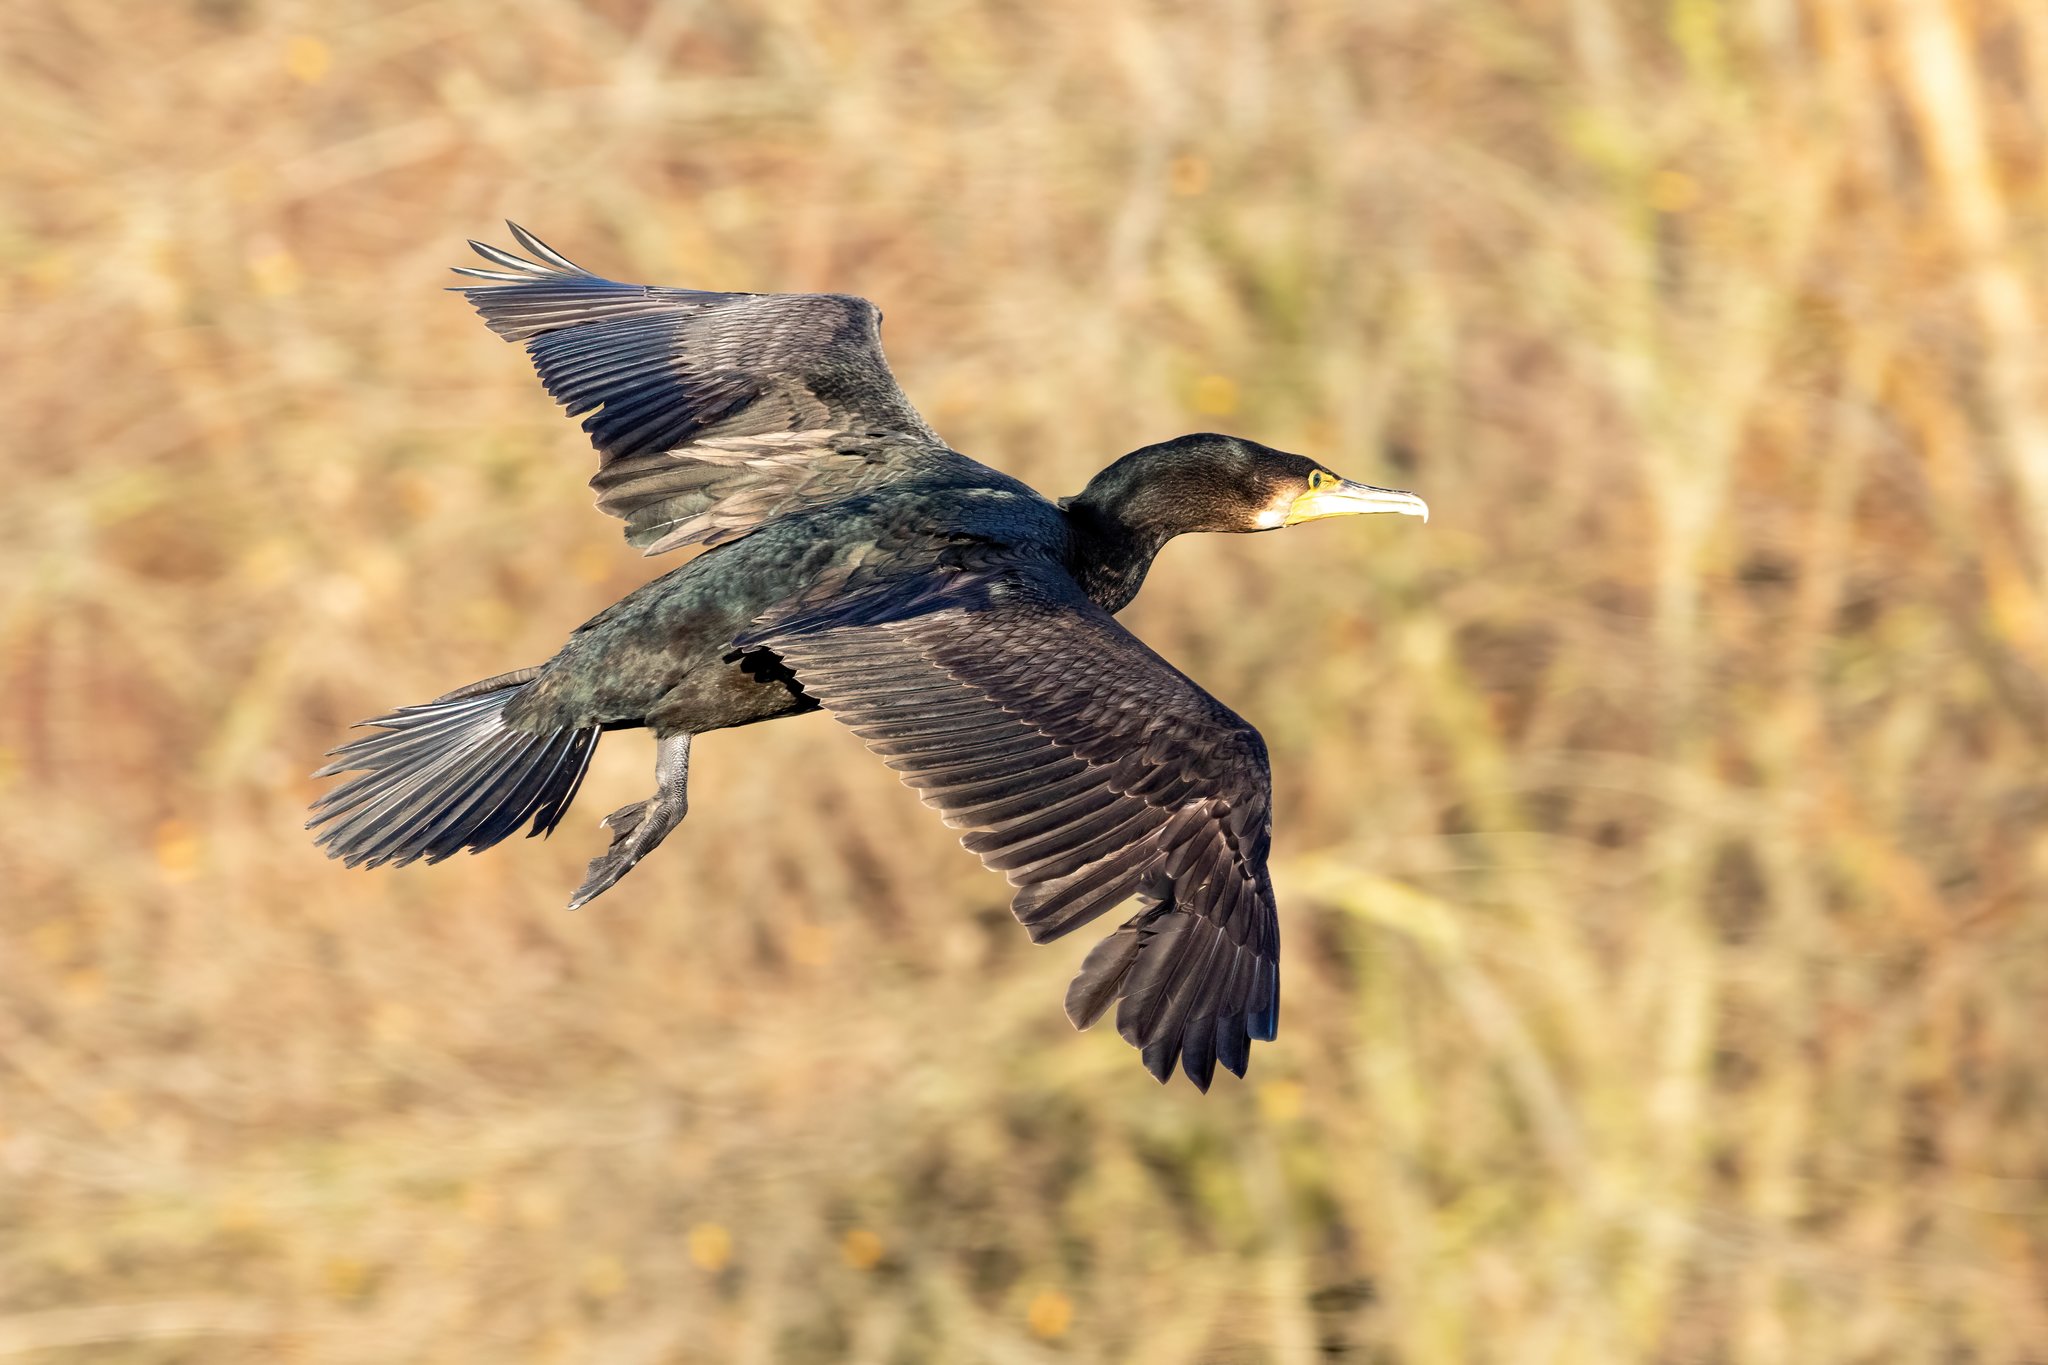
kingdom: Animalia
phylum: Chordata
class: Aves
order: Suliformes
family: Phalacrocoracidae
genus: Phalacrocorax
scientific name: Phalacrocorax carbo
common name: Great cormorant
